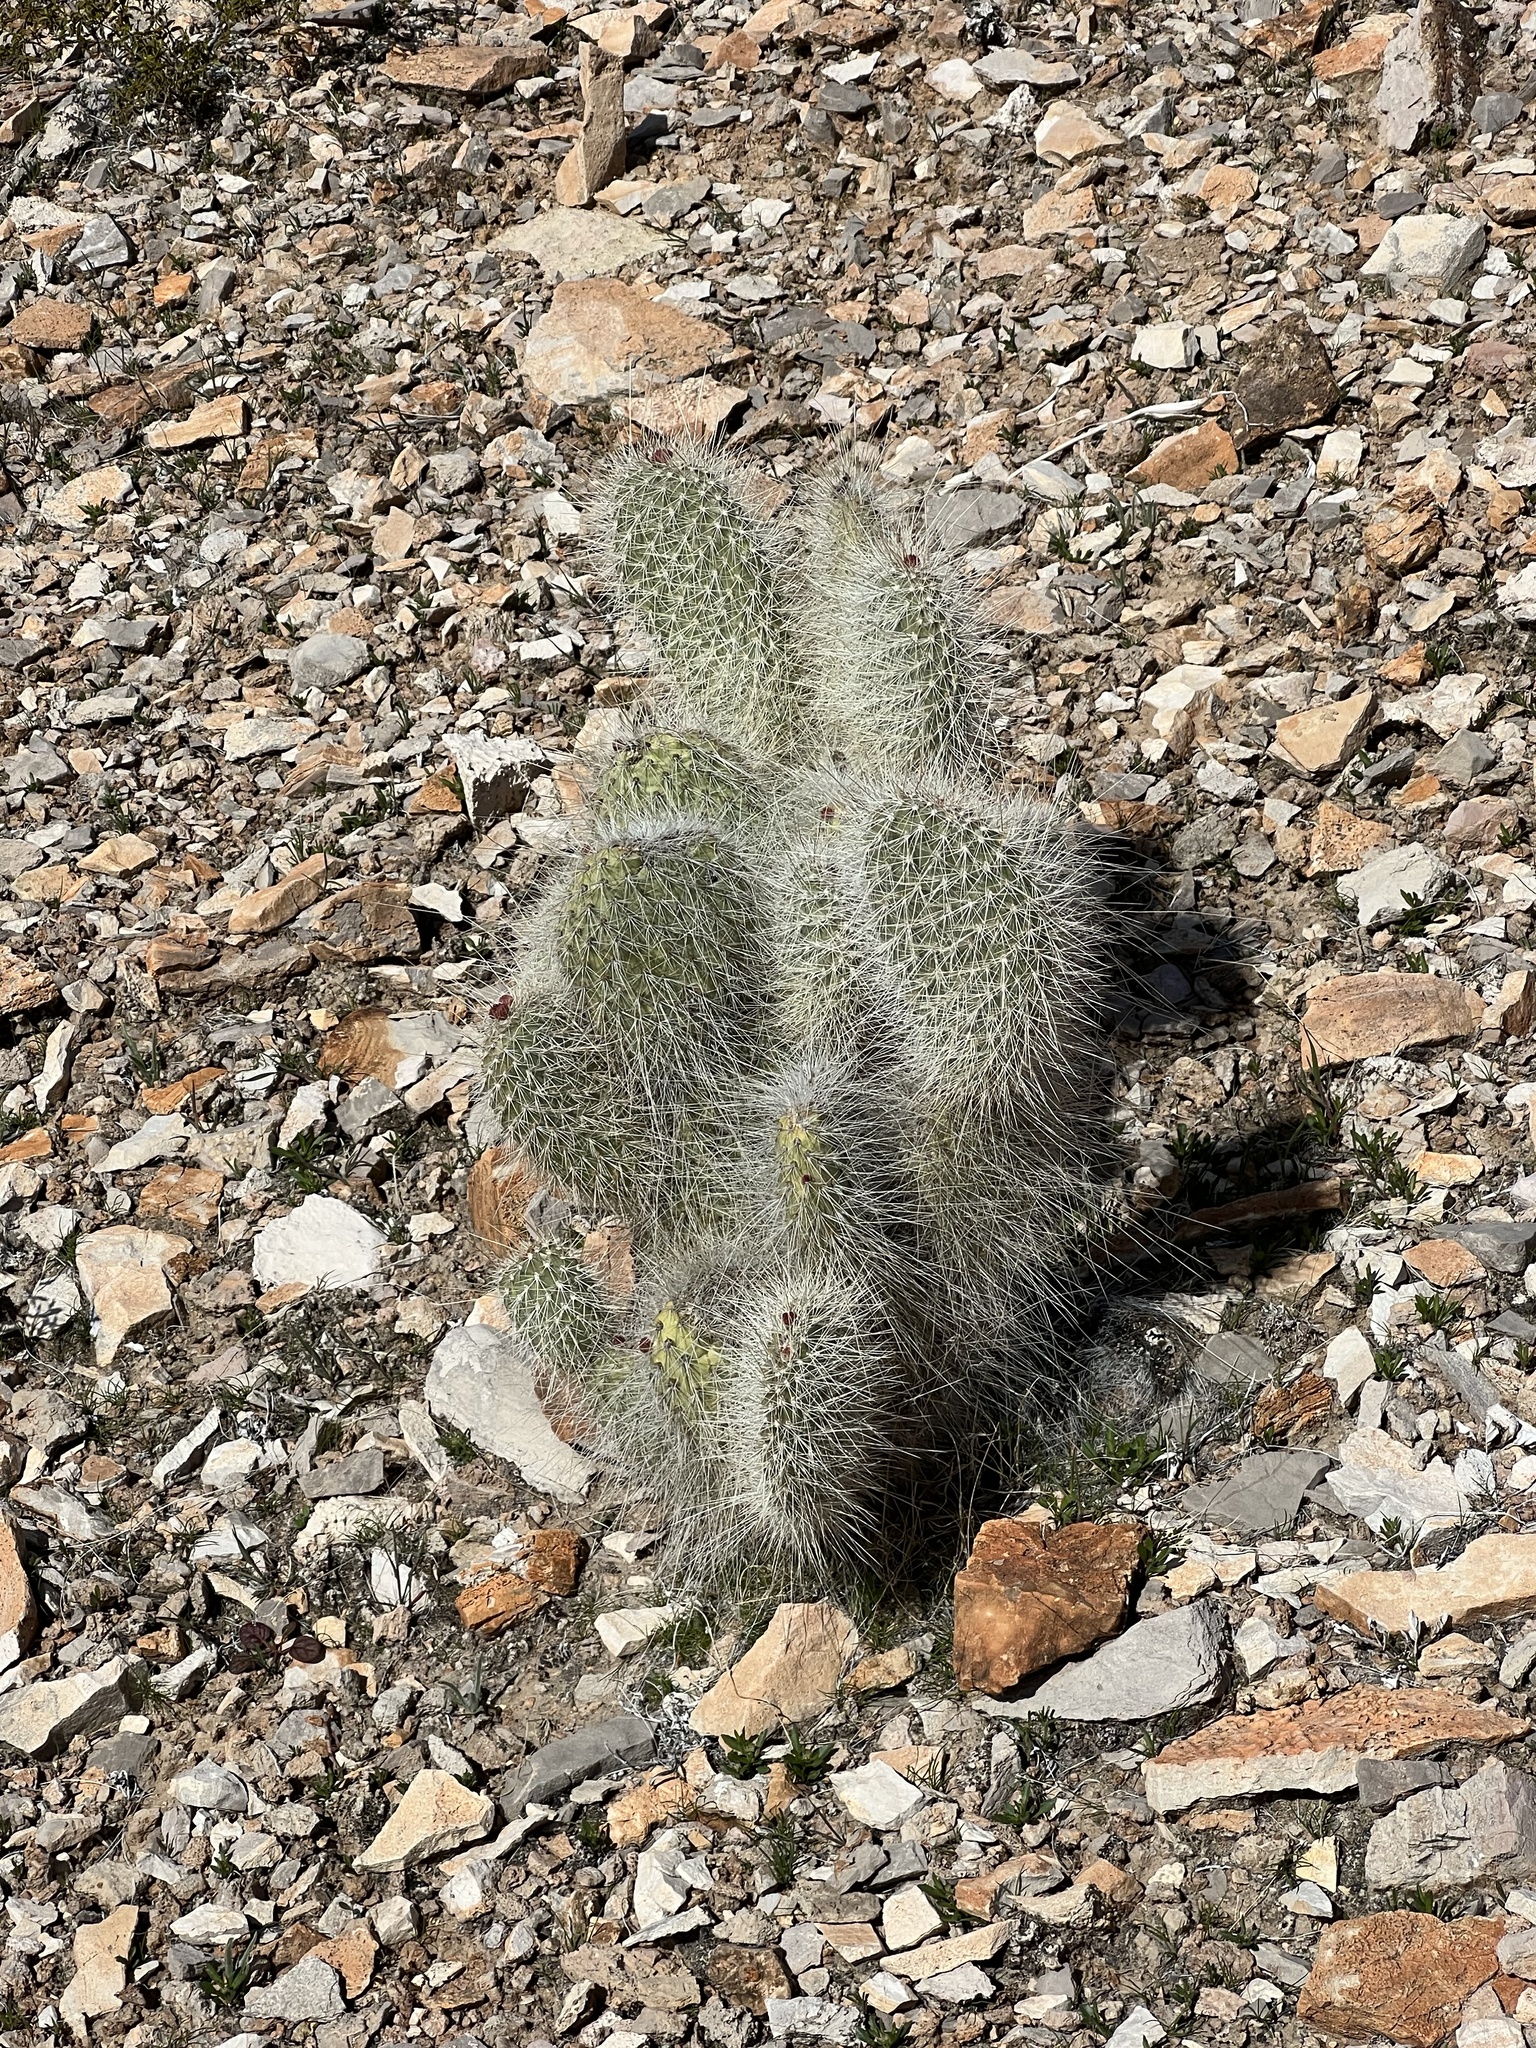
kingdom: Plantae
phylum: Tracheophyta
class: Magnoliopsida
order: Caryophyllales
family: Cactaceae
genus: Opuntia
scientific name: Opuntia polyacantha
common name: Plains prickly-pear
